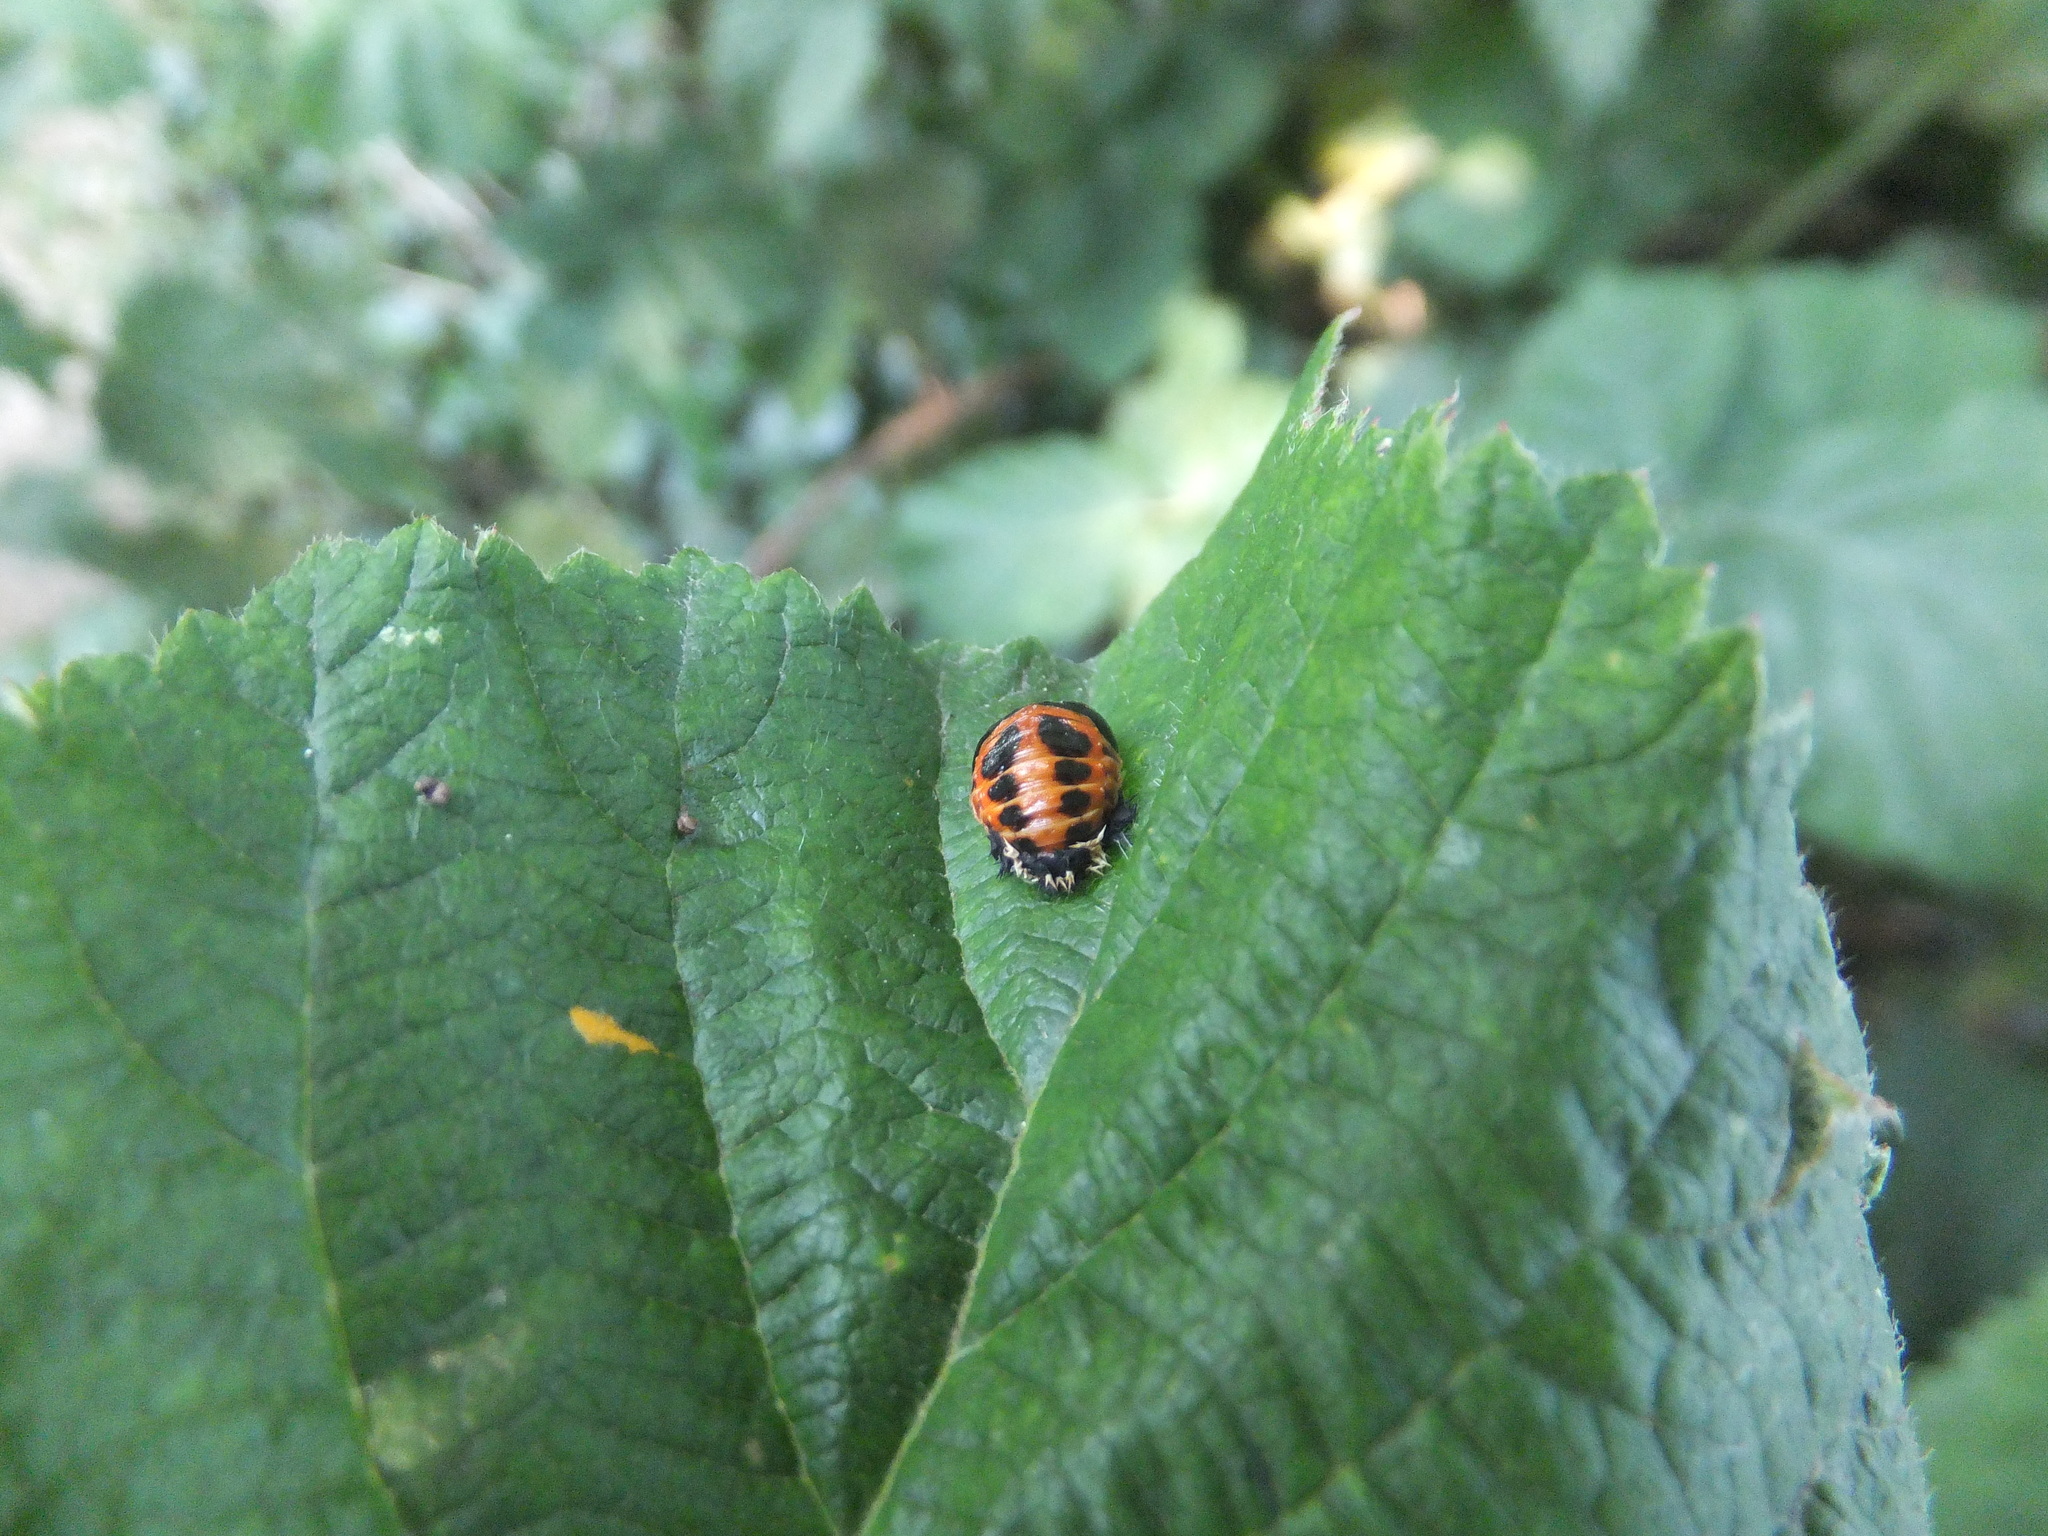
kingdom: Animalia
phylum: Arthropoda
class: Insecta
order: Coleoptera
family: Coccinellidae
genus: Harmonia
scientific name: Harmonia axyridis
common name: Harlequin ladybird
